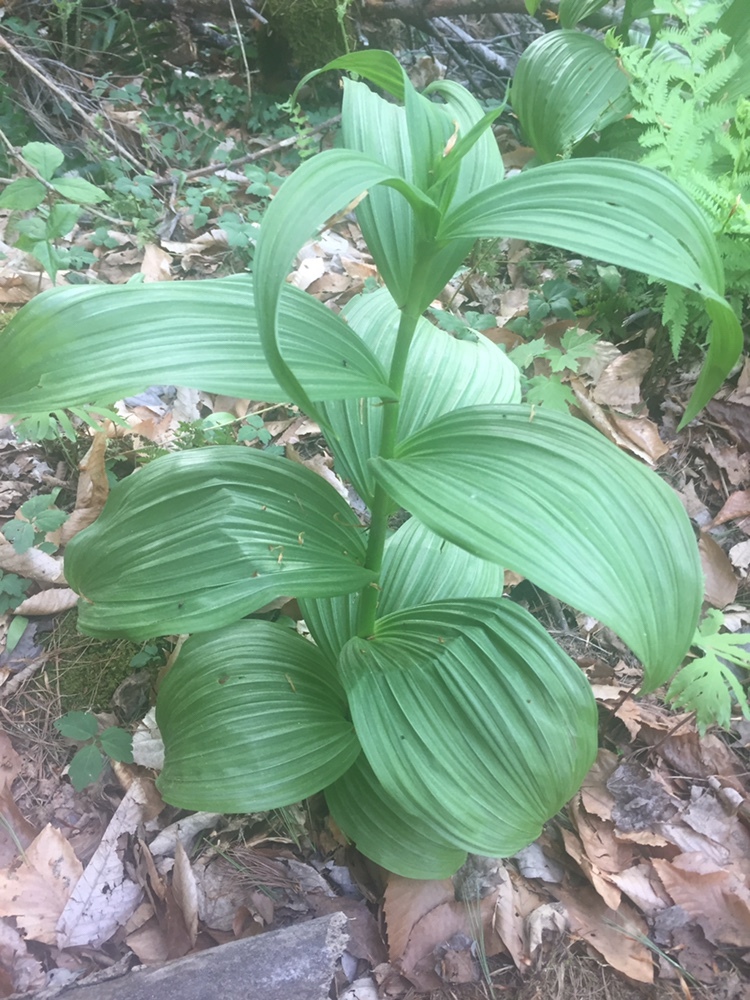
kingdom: Plantae
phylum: Tracheophyta
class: Liliopsida
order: Liliales
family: Melanthiaceae
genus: Veratrum
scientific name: Veratrum viride
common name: American false hellebore
